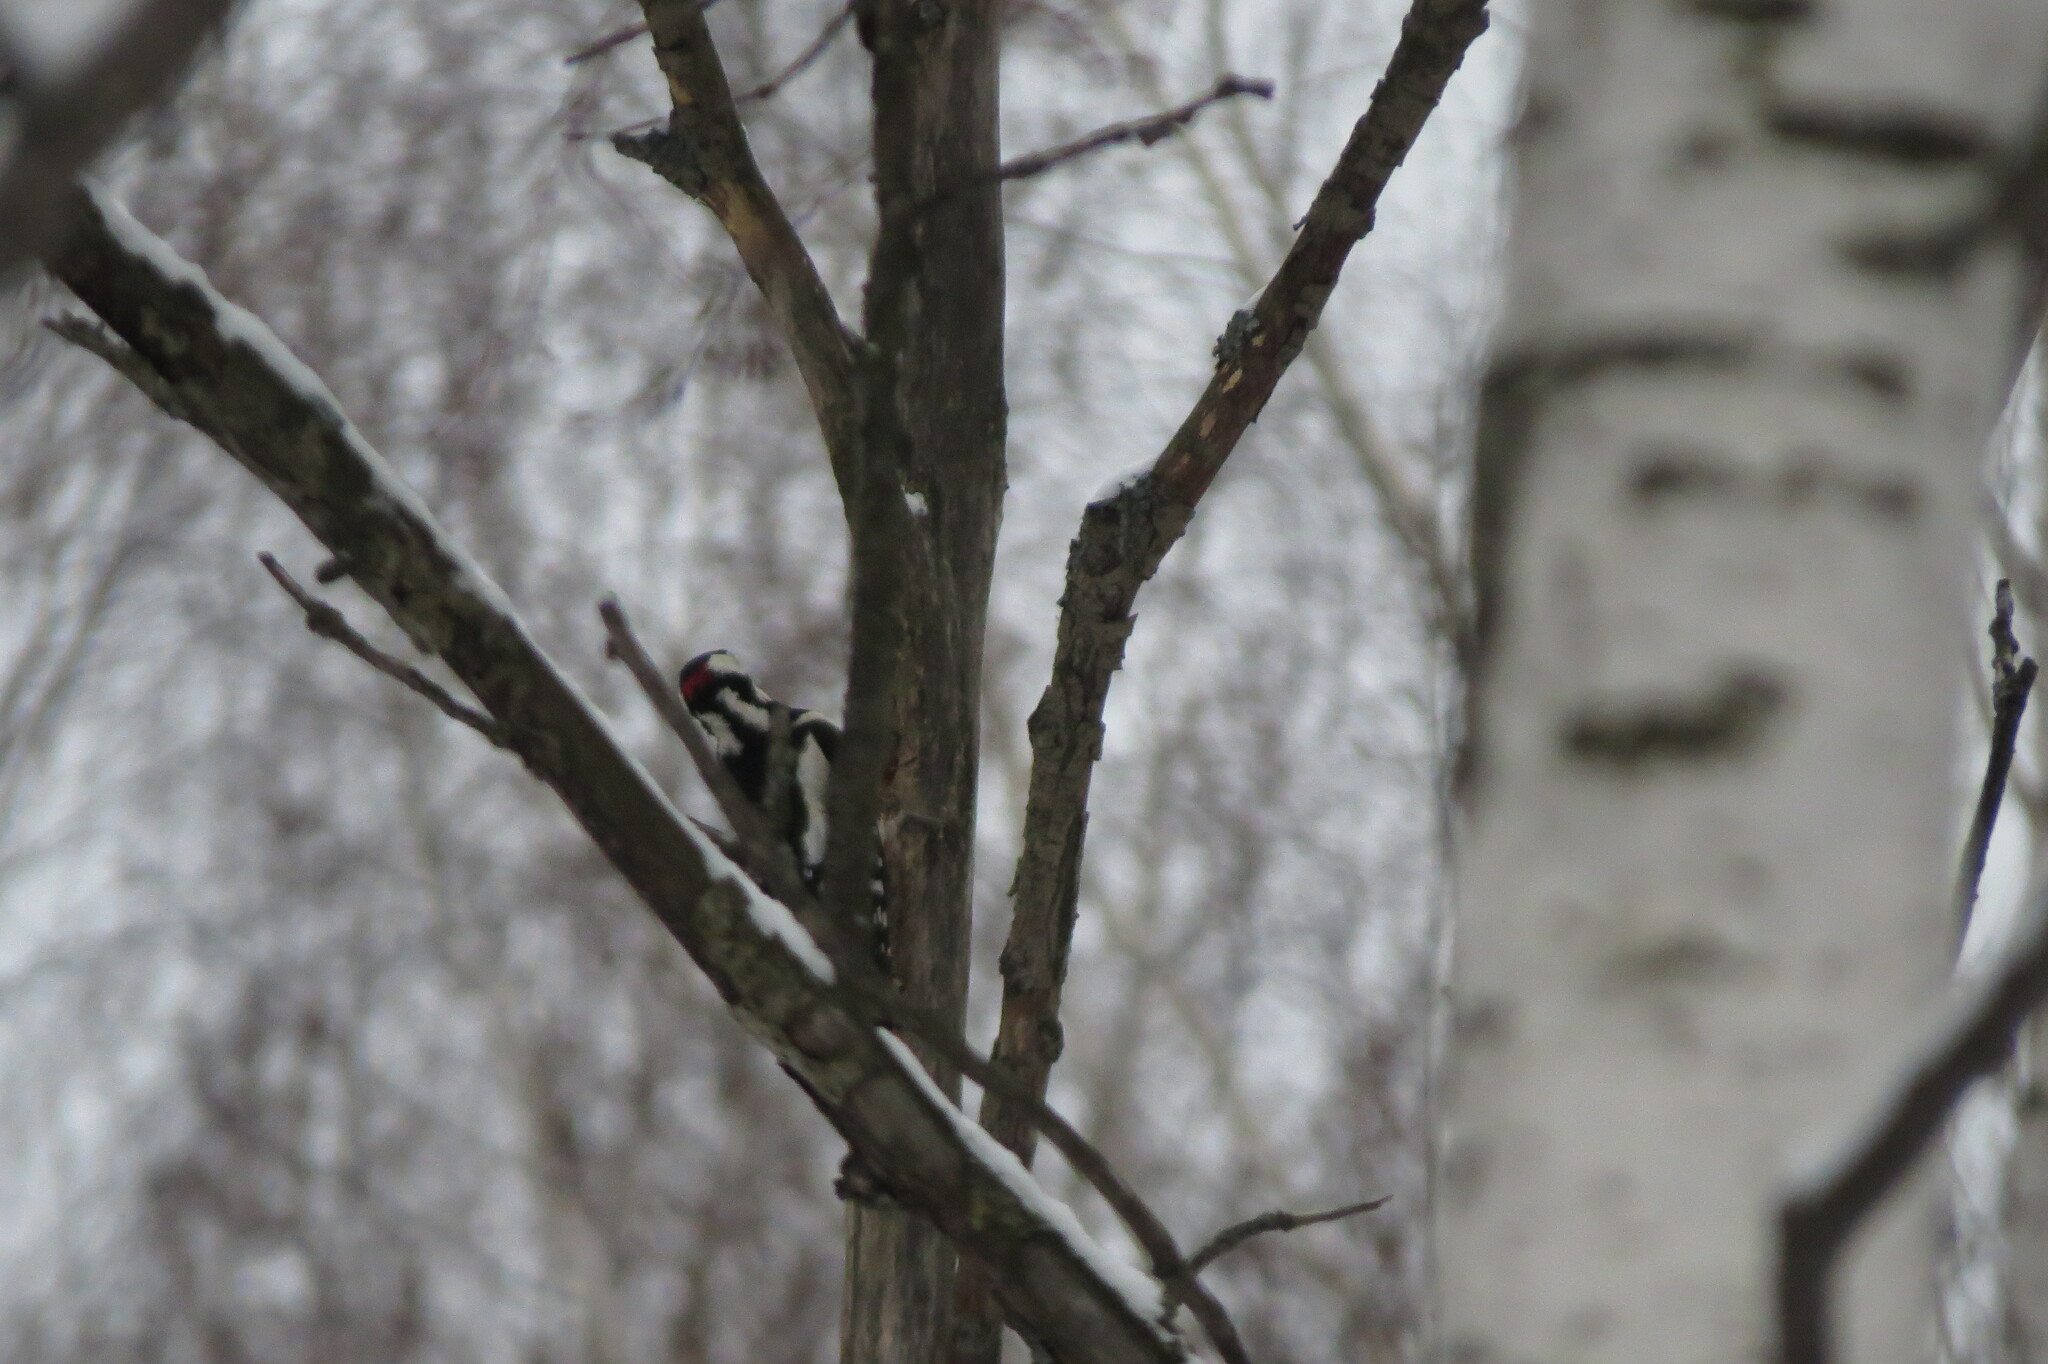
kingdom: Animalia
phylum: Chordata
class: Aves
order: Piciformes
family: Picidae
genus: Dendrocopos
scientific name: Dendrocopos major
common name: Great spotted woodpecker
